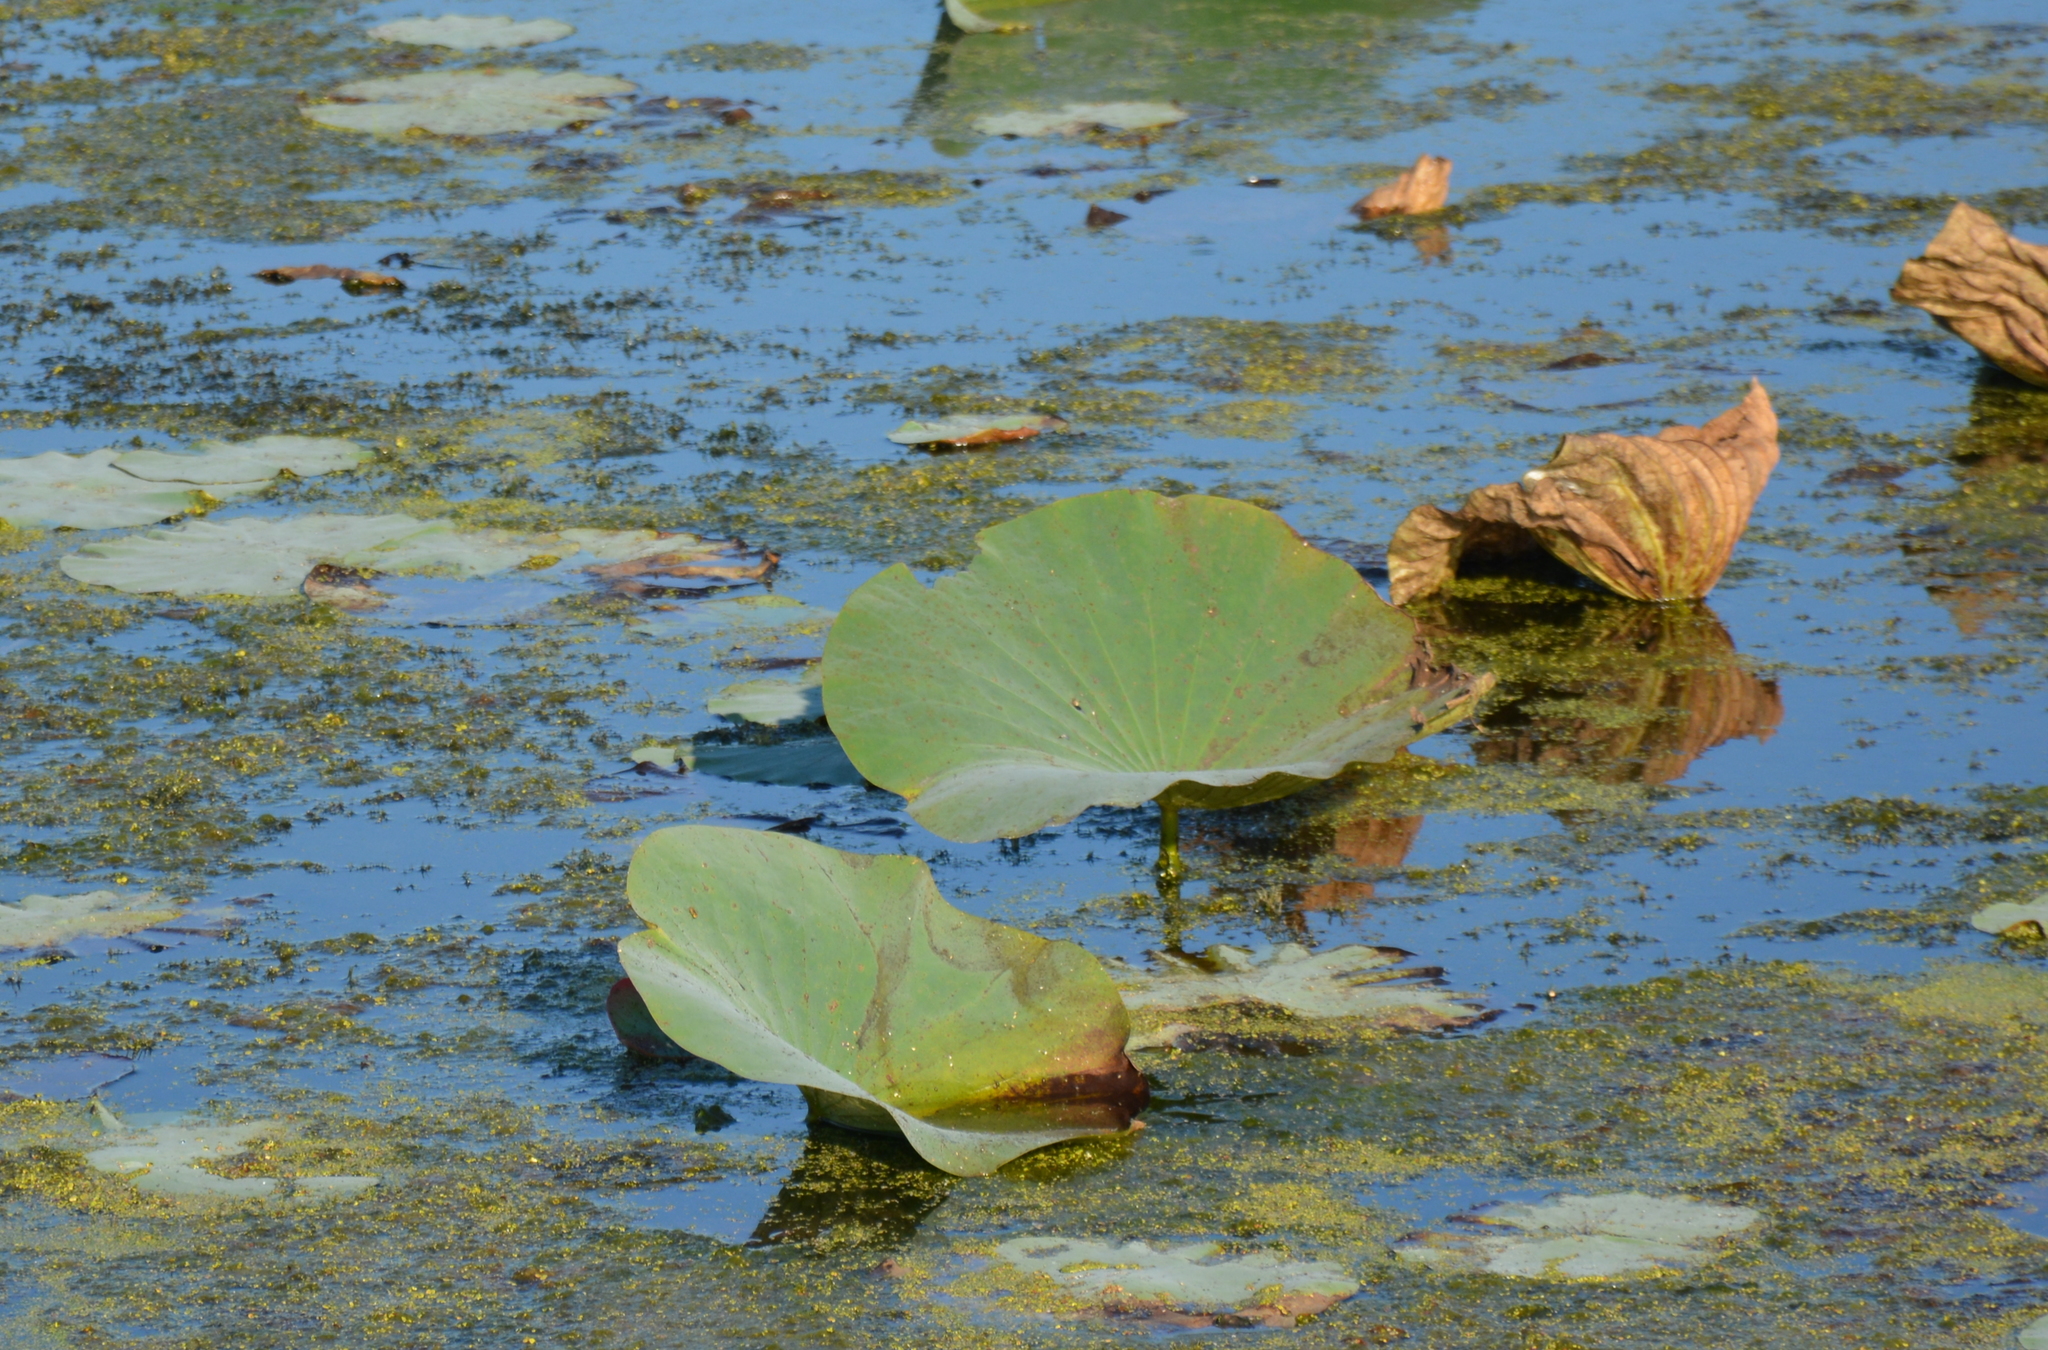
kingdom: Plantae
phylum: Tracheophyta
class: Magnoliopsida
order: Proteales
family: Nelumbonaceae
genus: Nelumbo
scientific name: Nelumbo nucifera
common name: Sacred lotus
